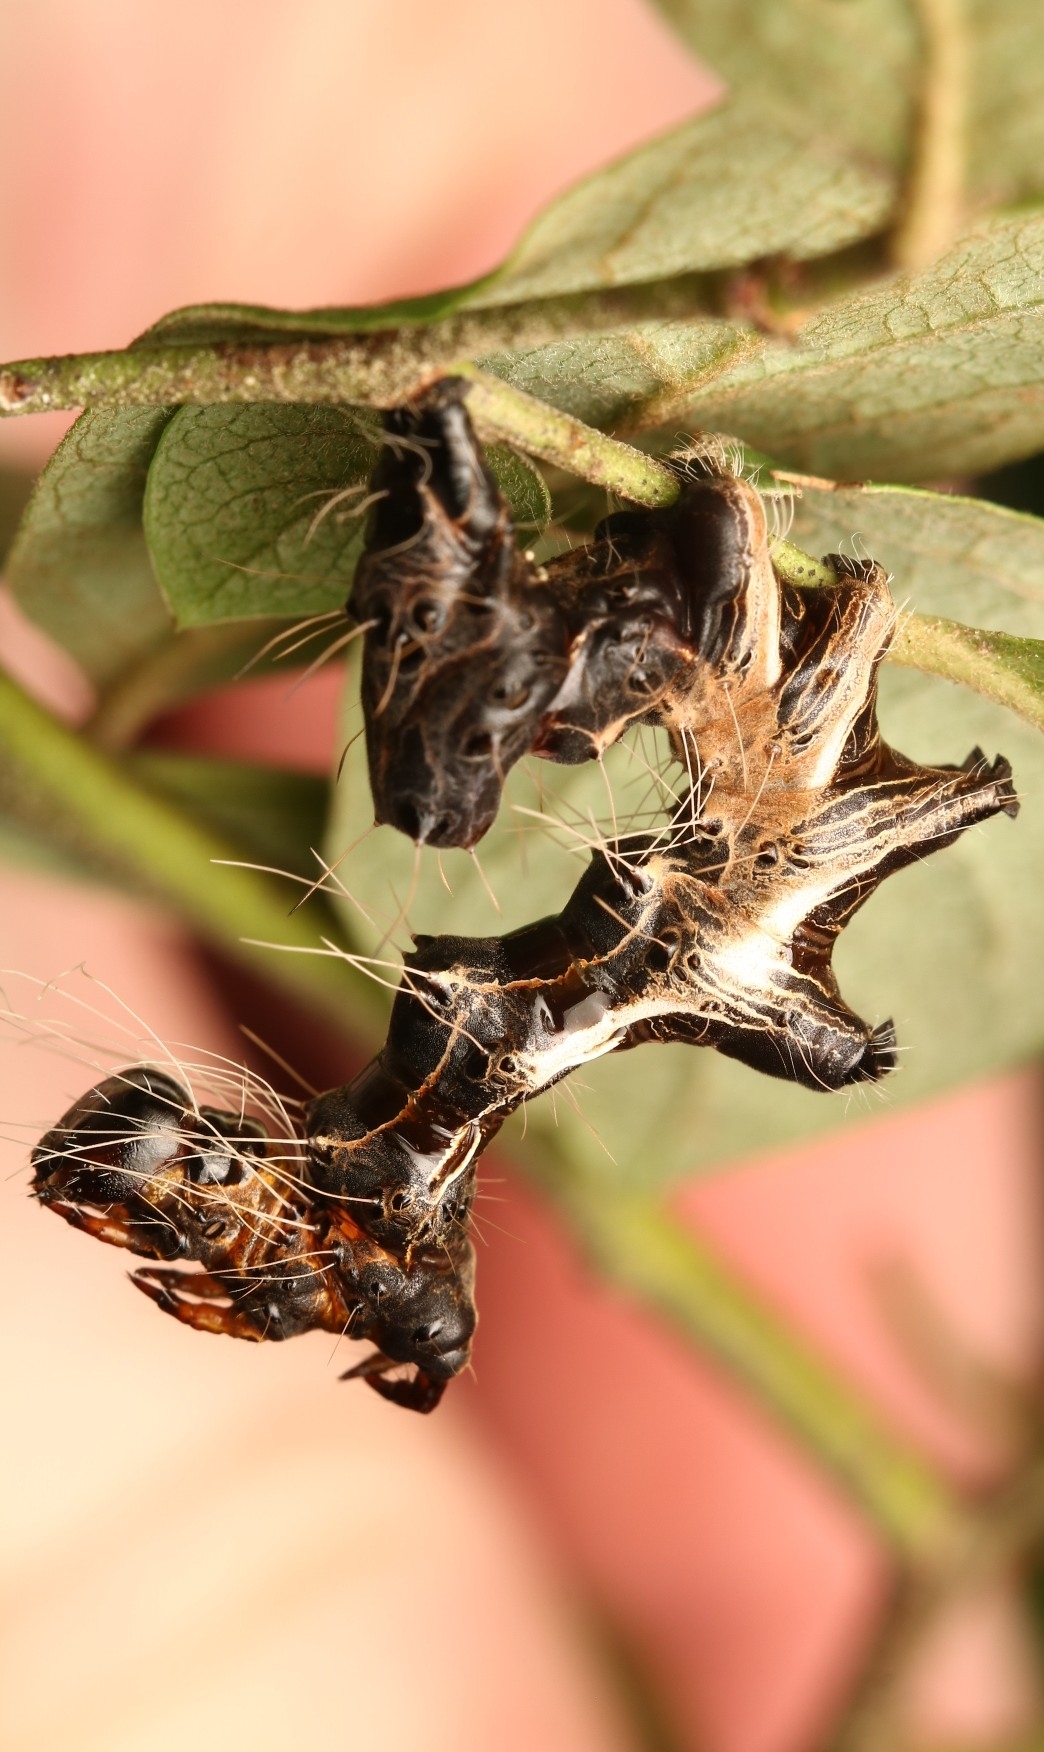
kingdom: Animalia
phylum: Arthropoda
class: Insecta
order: Lepidoptera
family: Noctuidae
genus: Harrisimemna
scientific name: Harrisimemna trisignata
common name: Harris threespot
